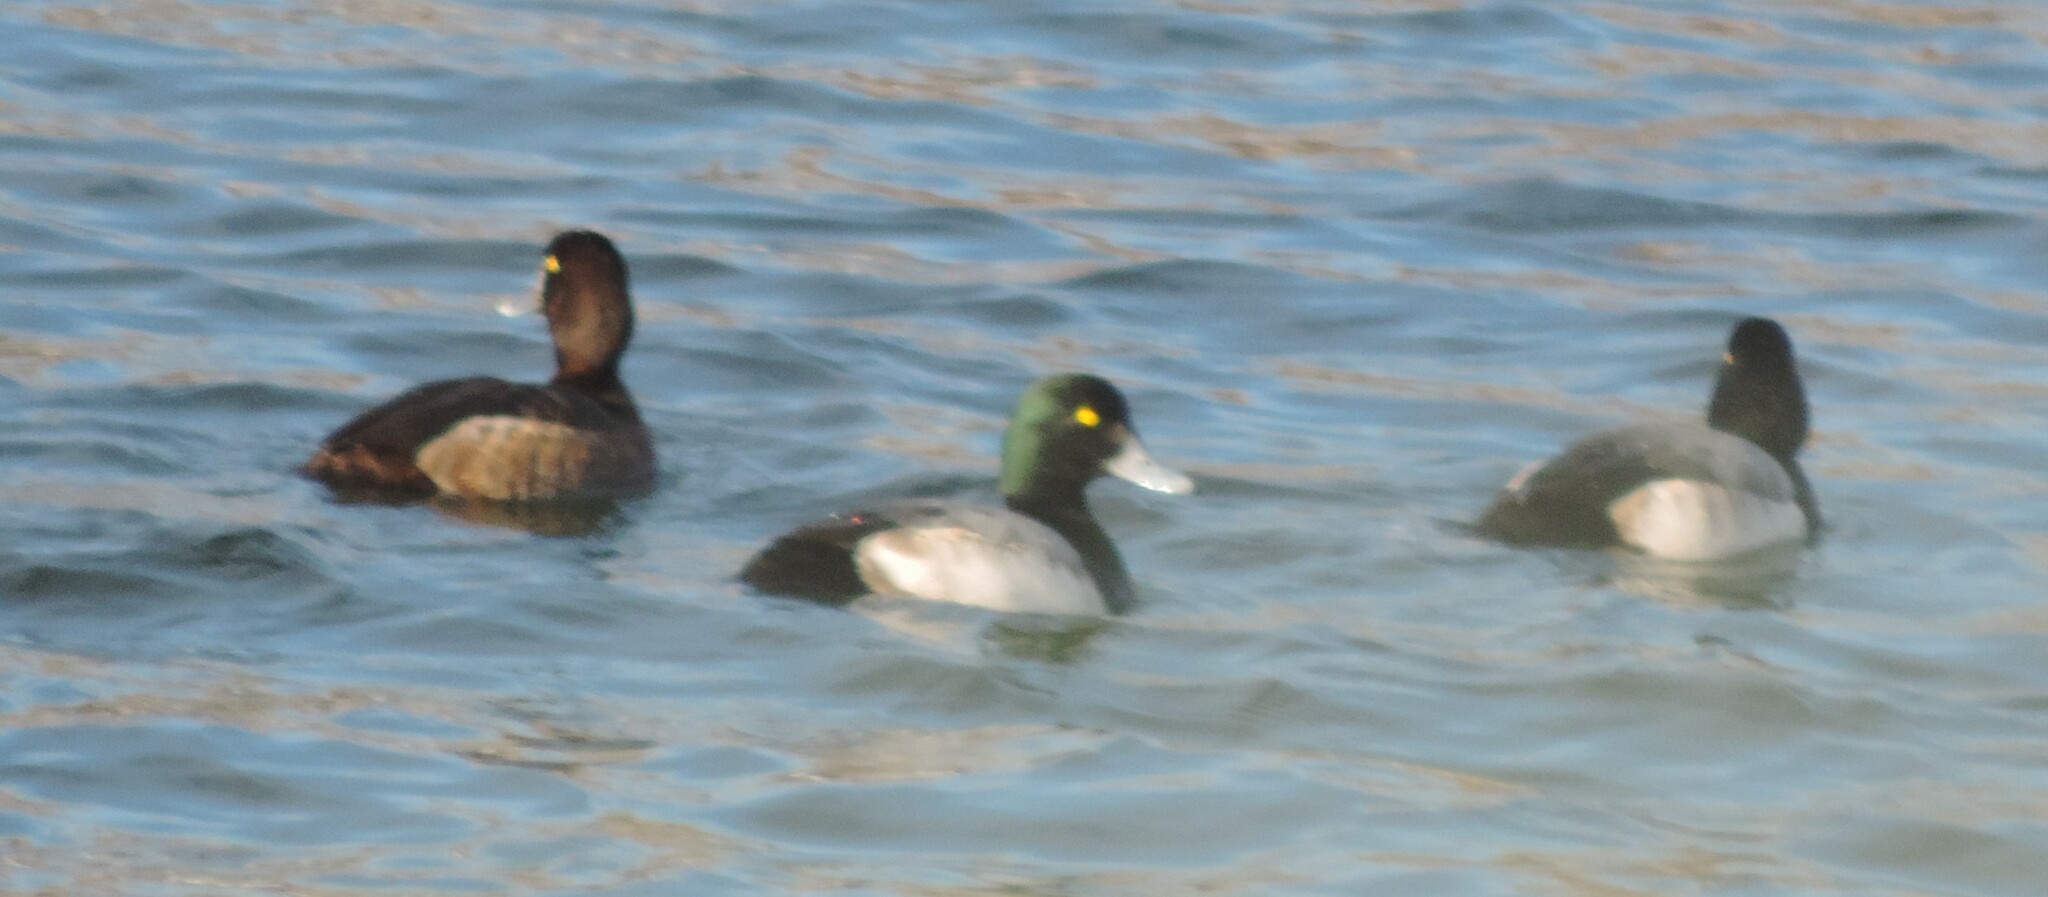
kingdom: Animalia
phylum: Chordata
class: Aves
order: Anseriformes
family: Anatidae
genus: Aythya
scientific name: Aythya marila
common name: Greater scaup
